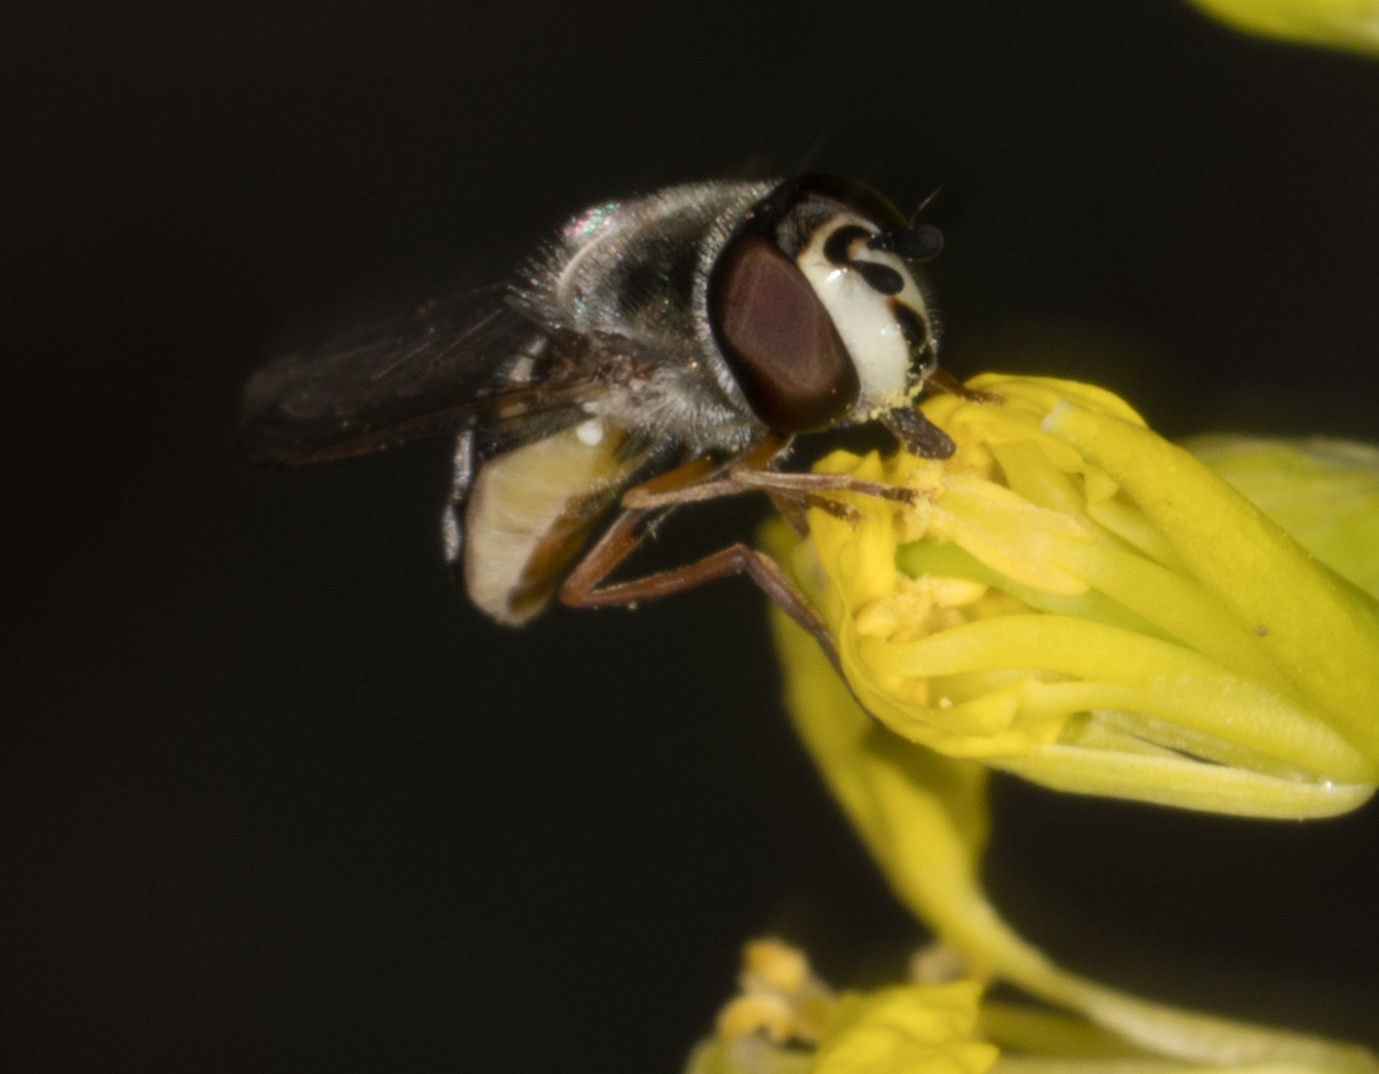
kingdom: Animalia
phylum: Arthropoda
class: Insecta
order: Diptera
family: Syrphidae
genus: Eupeodes
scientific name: Eupeodes volucris
